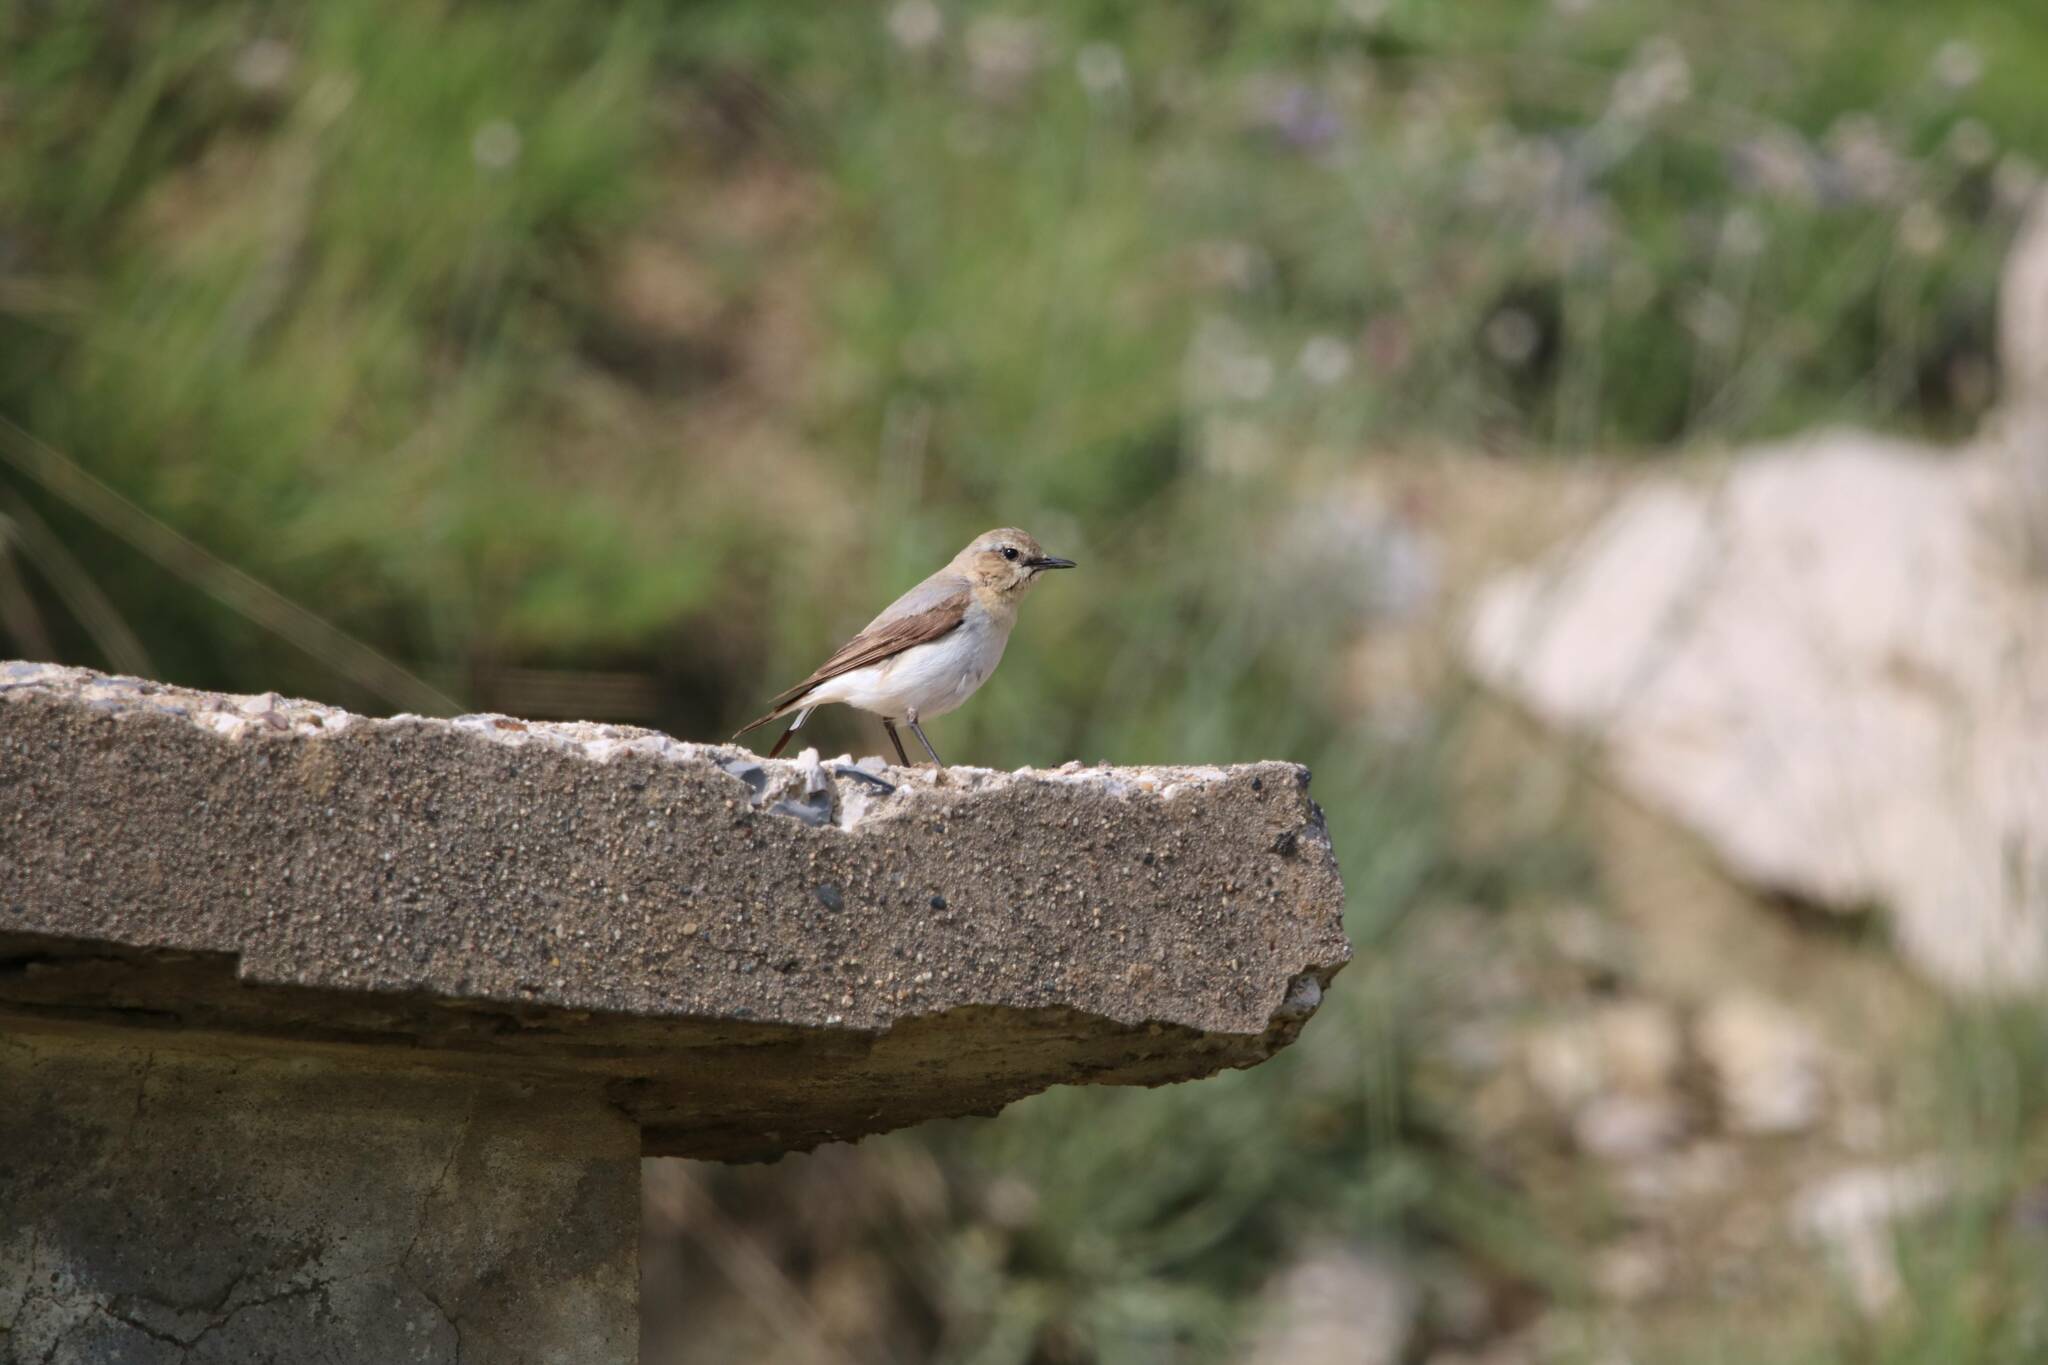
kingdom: Animalia
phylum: Chordata
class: Aves
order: Passeriformes
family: Muscicapidae
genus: Oenanthe
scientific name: Oenanthe oenanthe
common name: Northern wheatear
